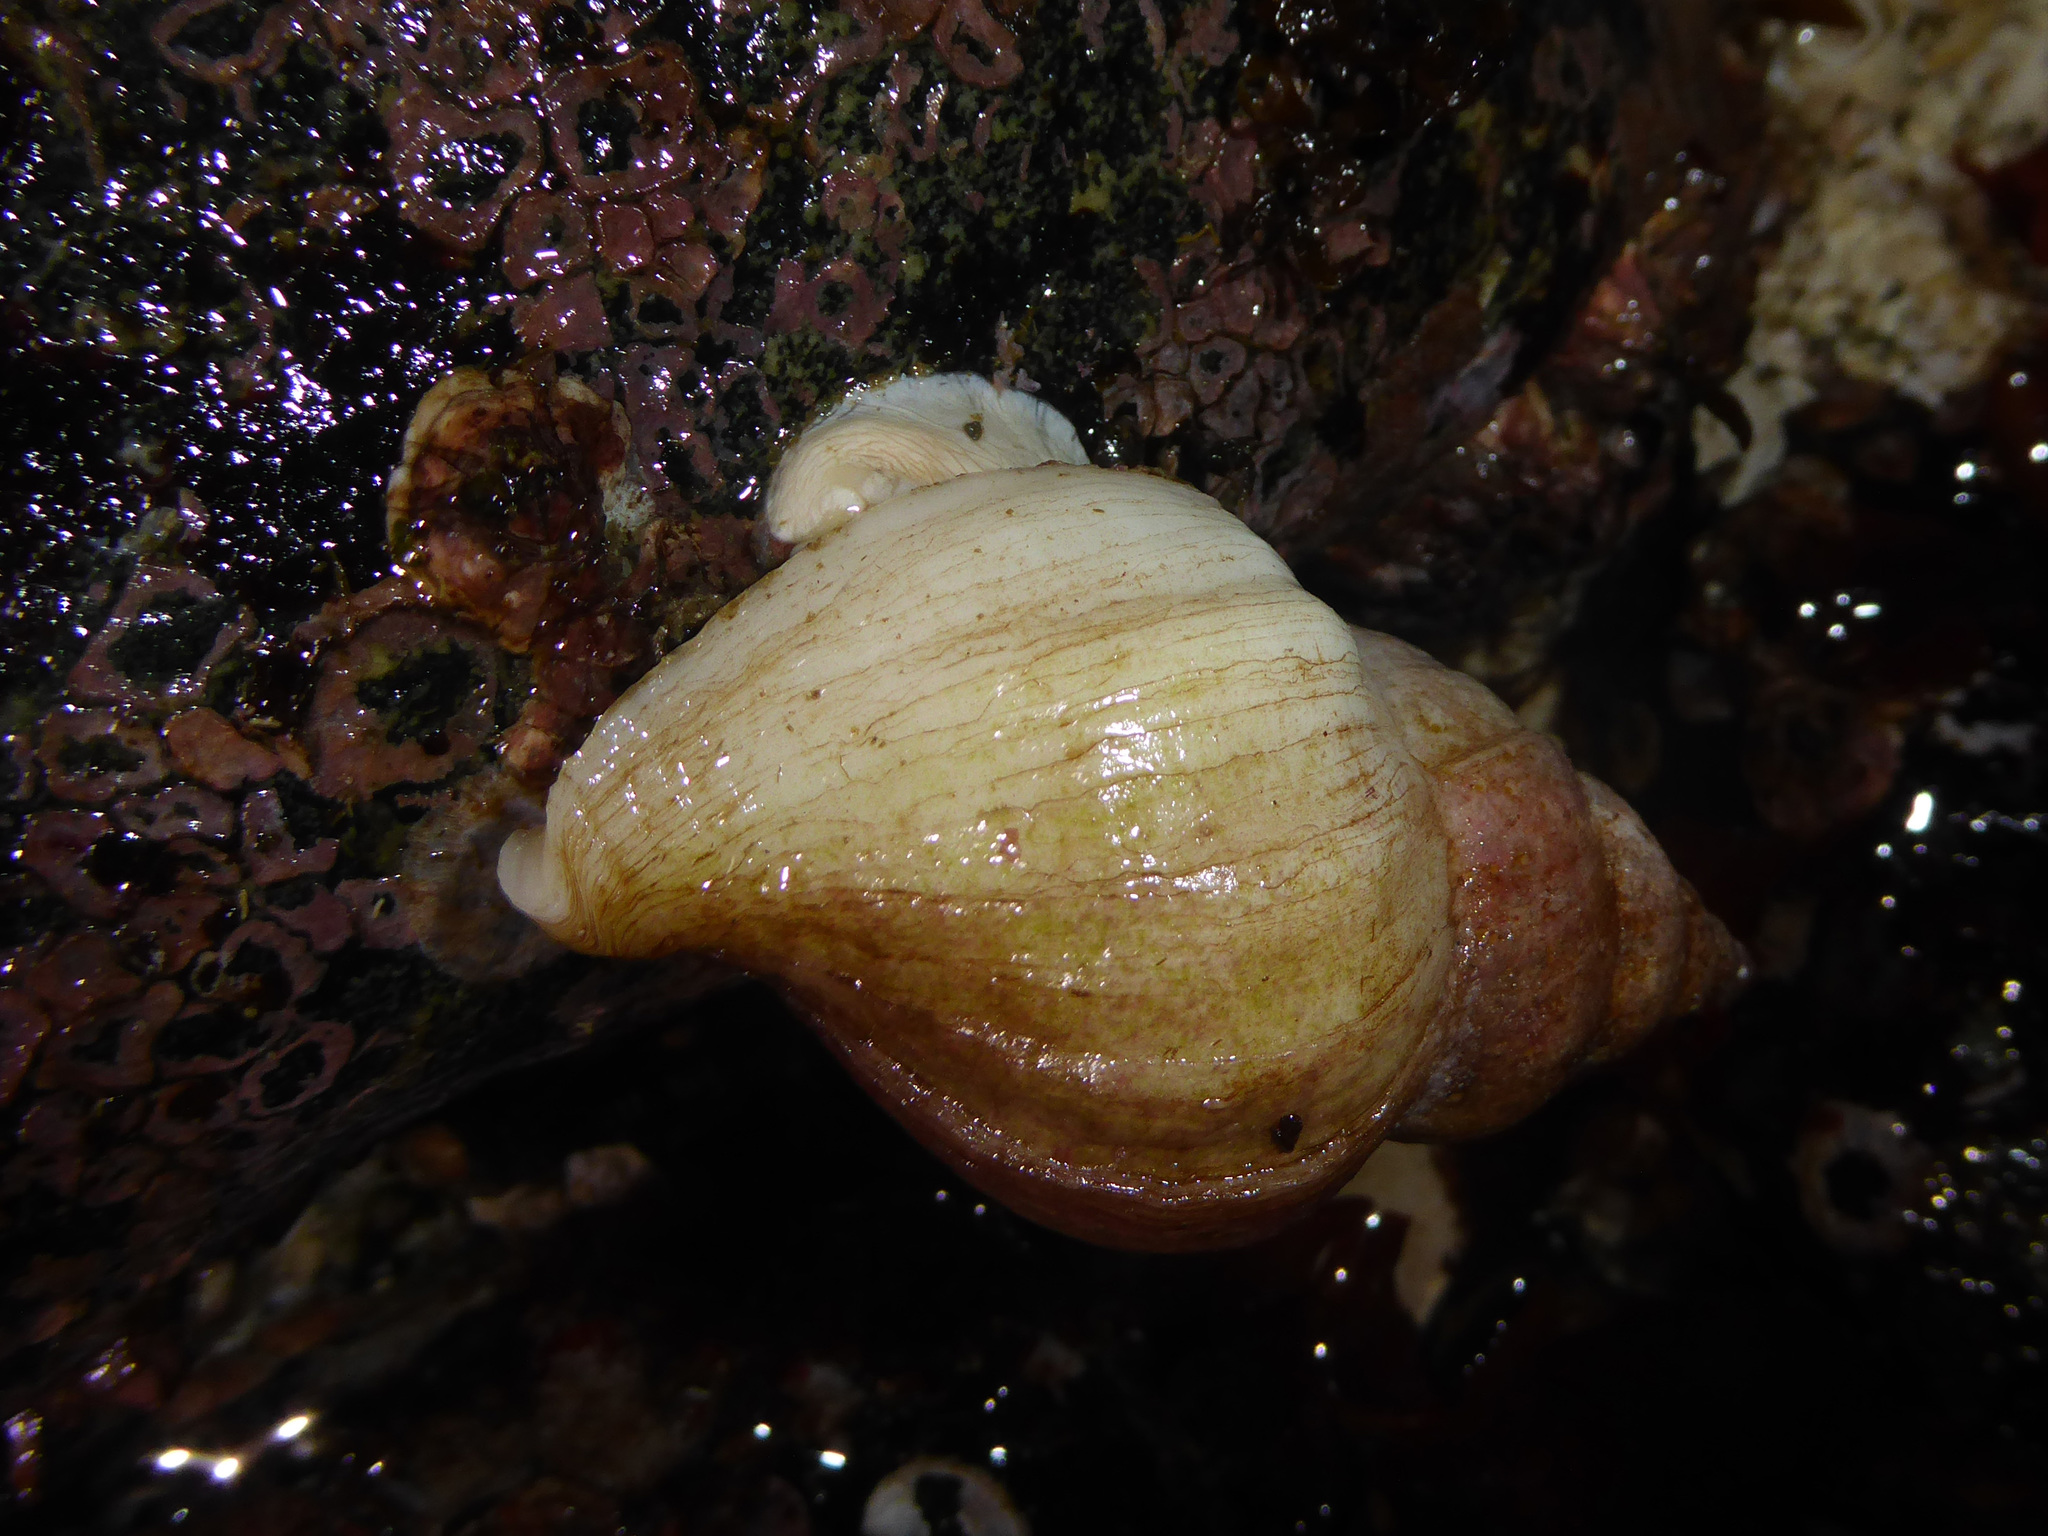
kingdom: Animalia
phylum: Mollusca
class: Gastropoda
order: Neogastropoda
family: Muricidae
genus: Nucella
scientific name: Nucella lamellosa
